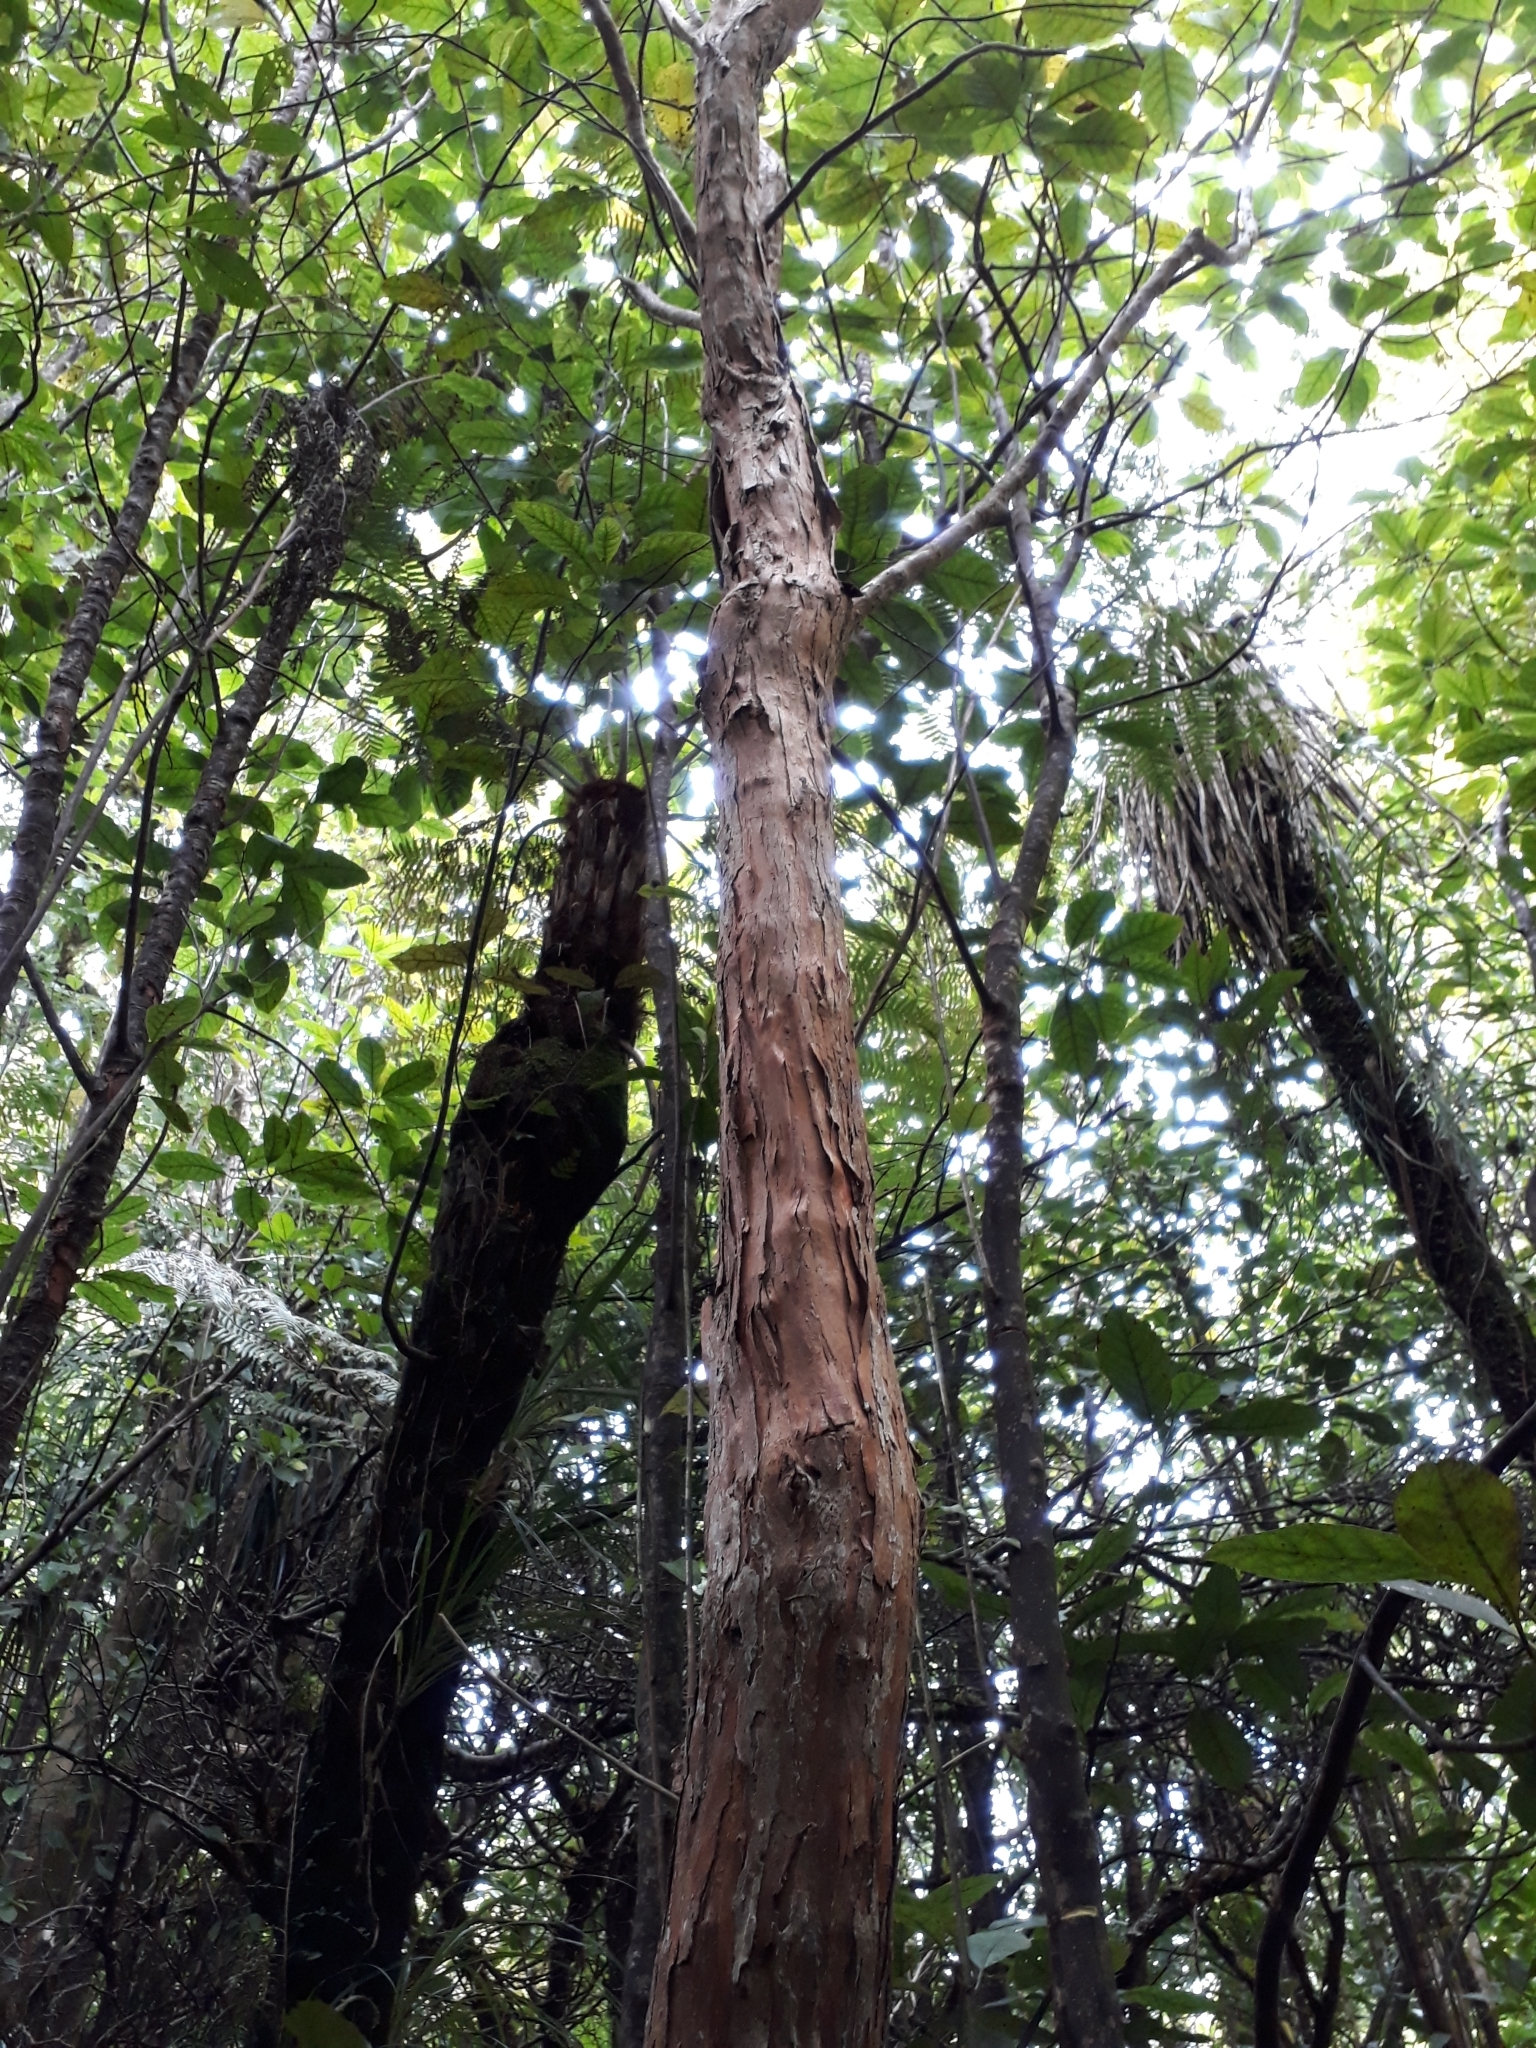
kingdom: Plantae
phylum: Tracheophyta
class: Magnoliopsida
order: Myrtales
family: Onagraceae
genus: Fuchsia
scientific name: Fuchsia excorticata
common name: Tree fuchsia
